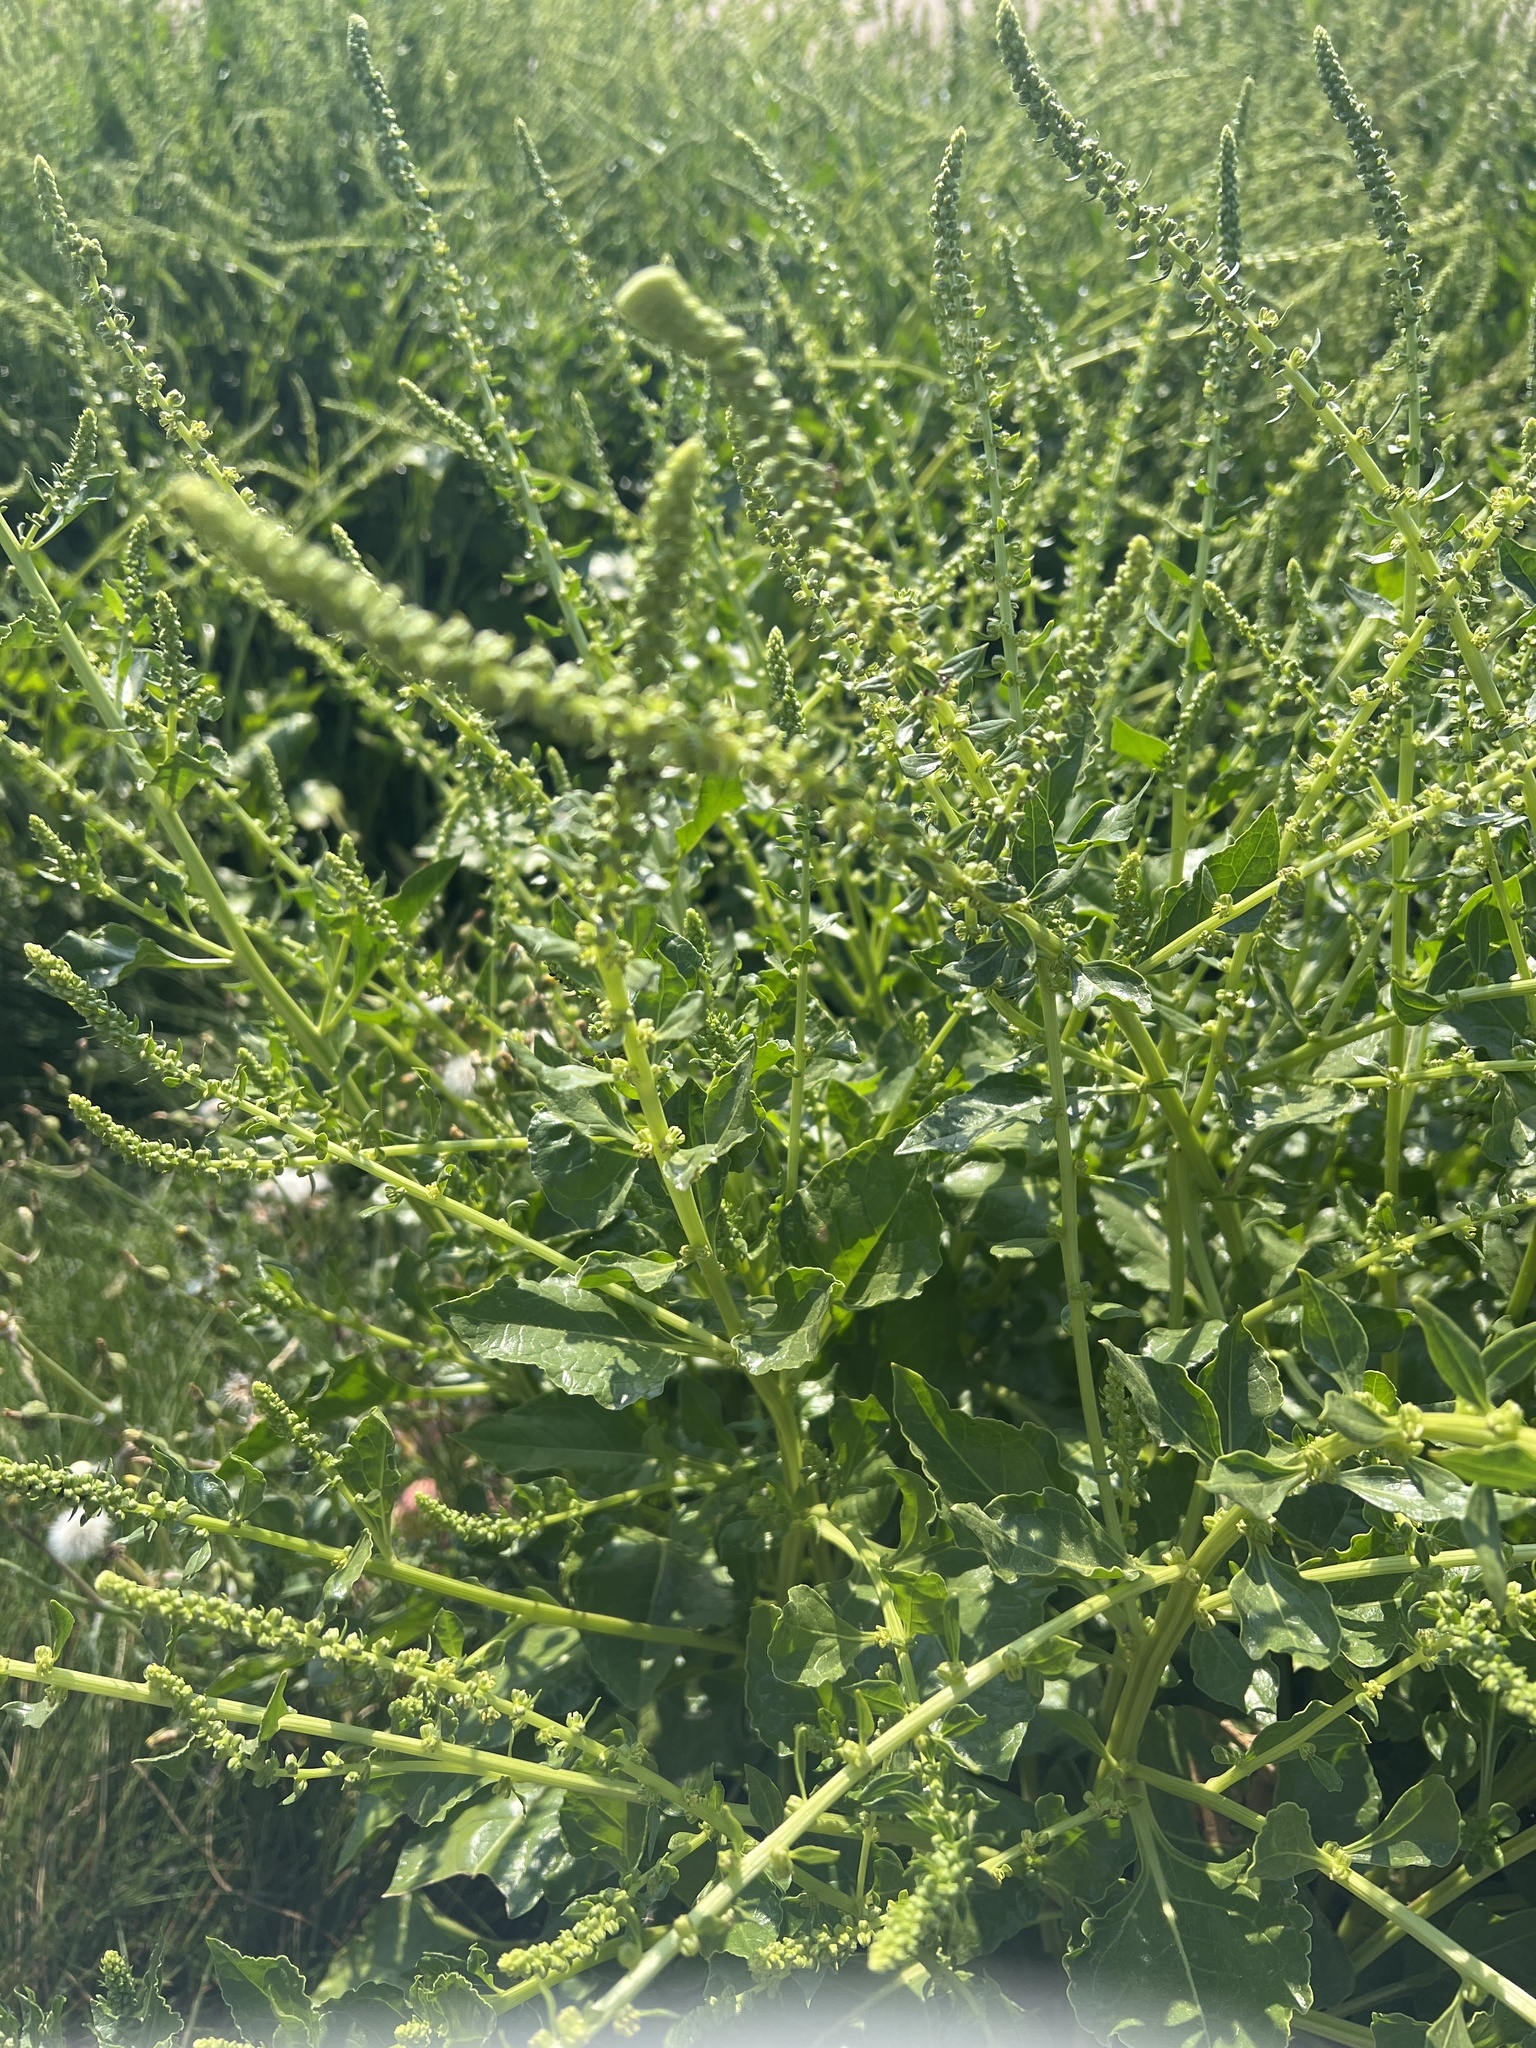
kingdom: Plantae
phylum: Tracheophyta
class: Magnoliopsida
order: Caryophyllales
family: Amaranthaceae
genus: Beta
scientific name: Beta vulgaris
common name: Beet
